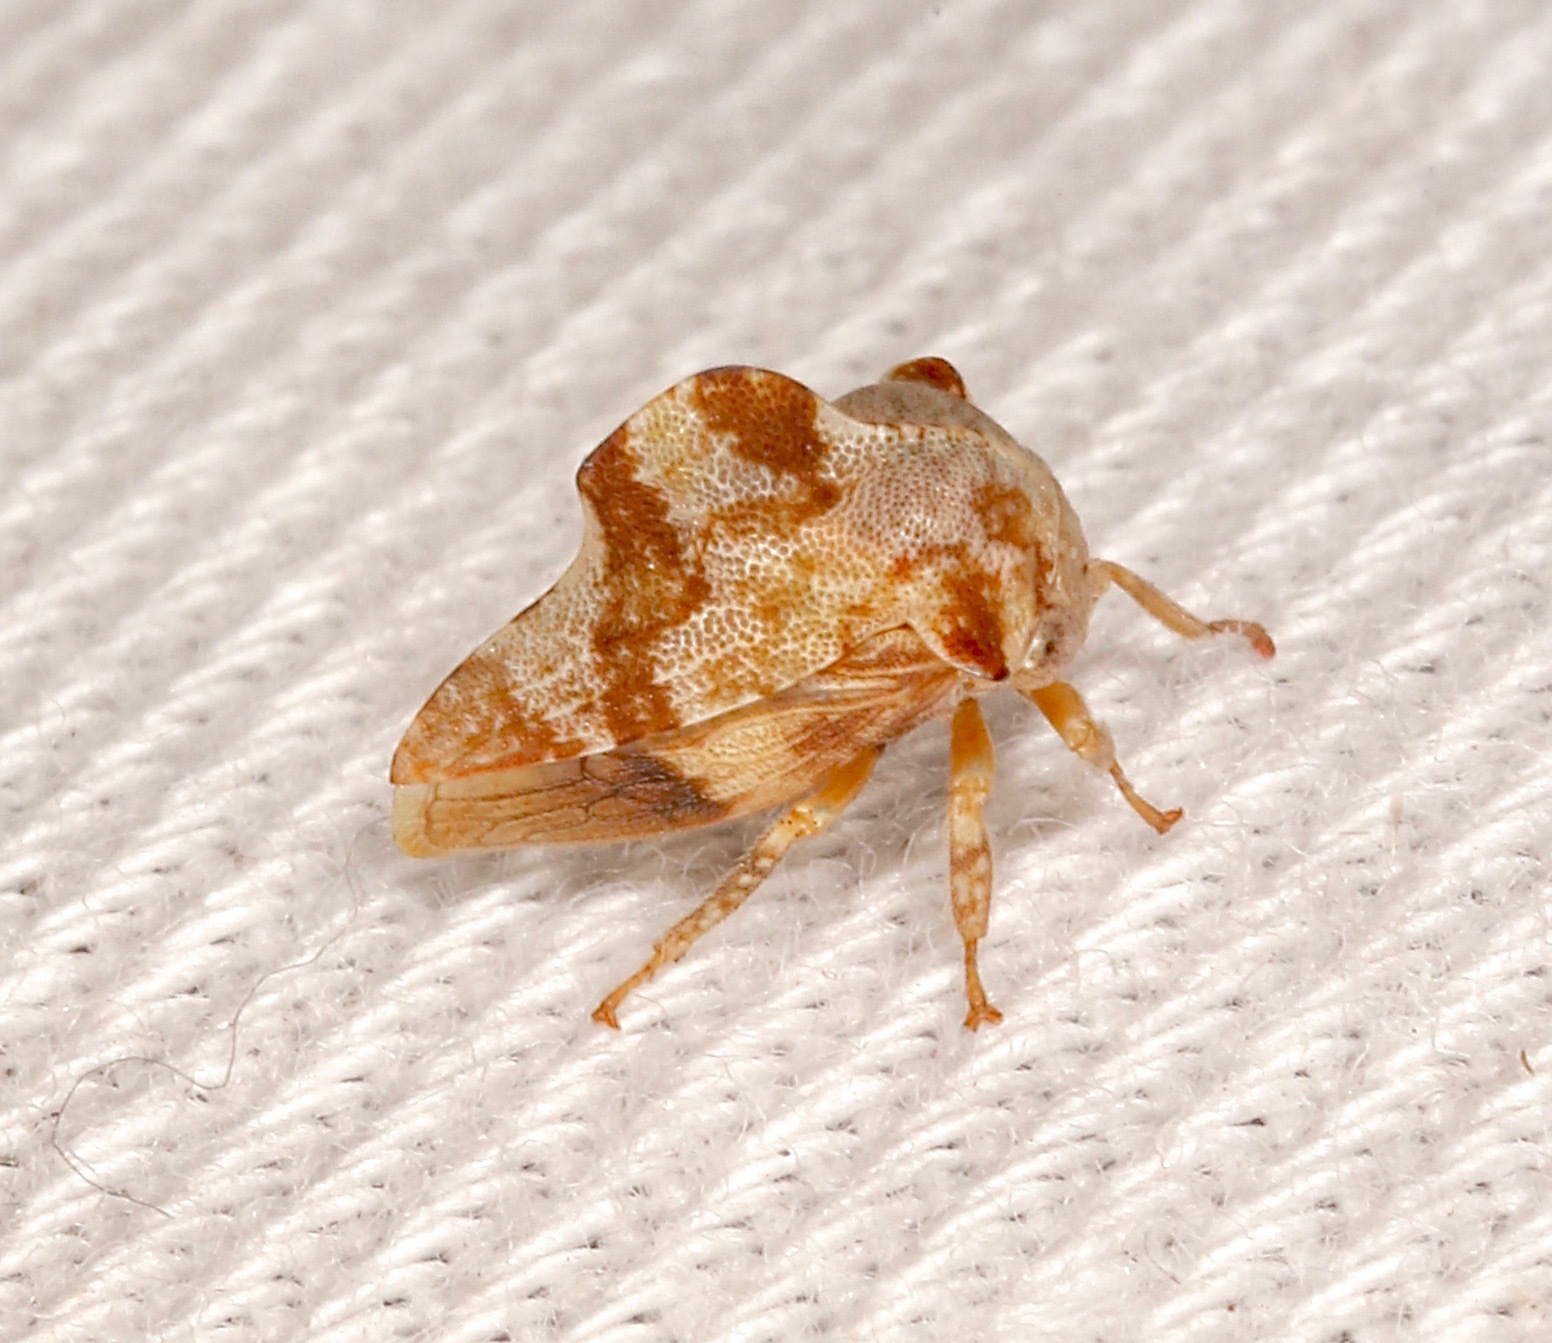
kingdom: Animalia
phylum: Arthropoda
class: Insecta
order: Hemiptera
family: Membracidae
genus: Telamonanthe
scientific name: Telamonanthe pulchella
